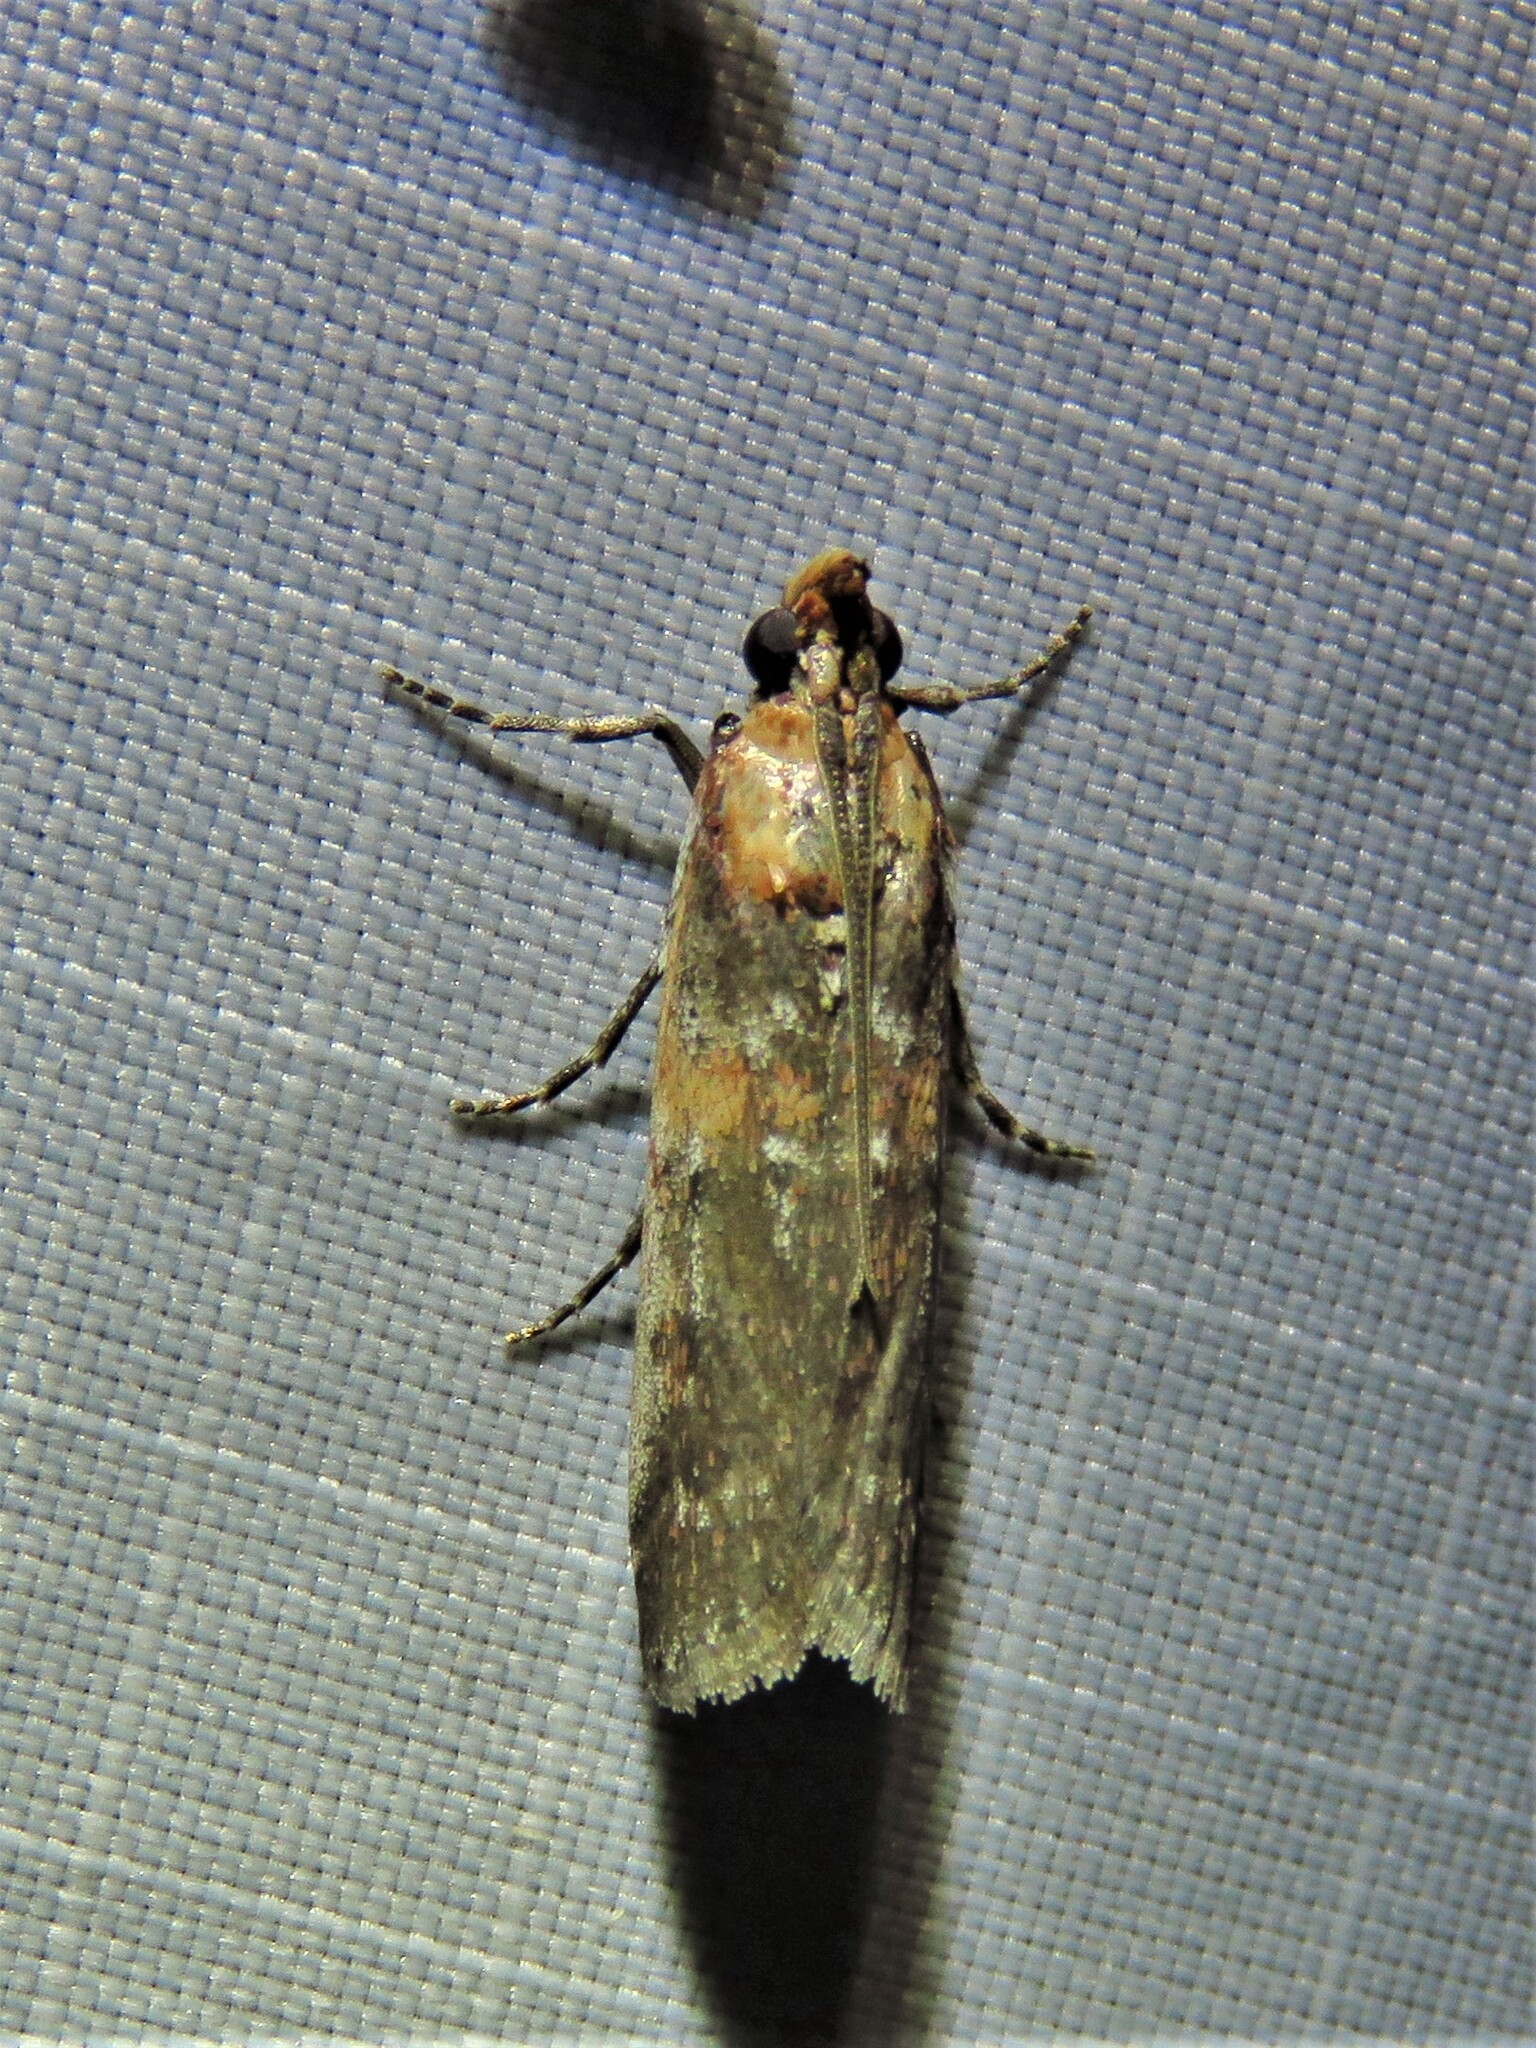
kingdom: Animalia
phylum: Arthropoda
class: Insecta
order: Lepidoptera
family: Pyralidae
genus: Adelphia
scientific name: Adelphia petrella
